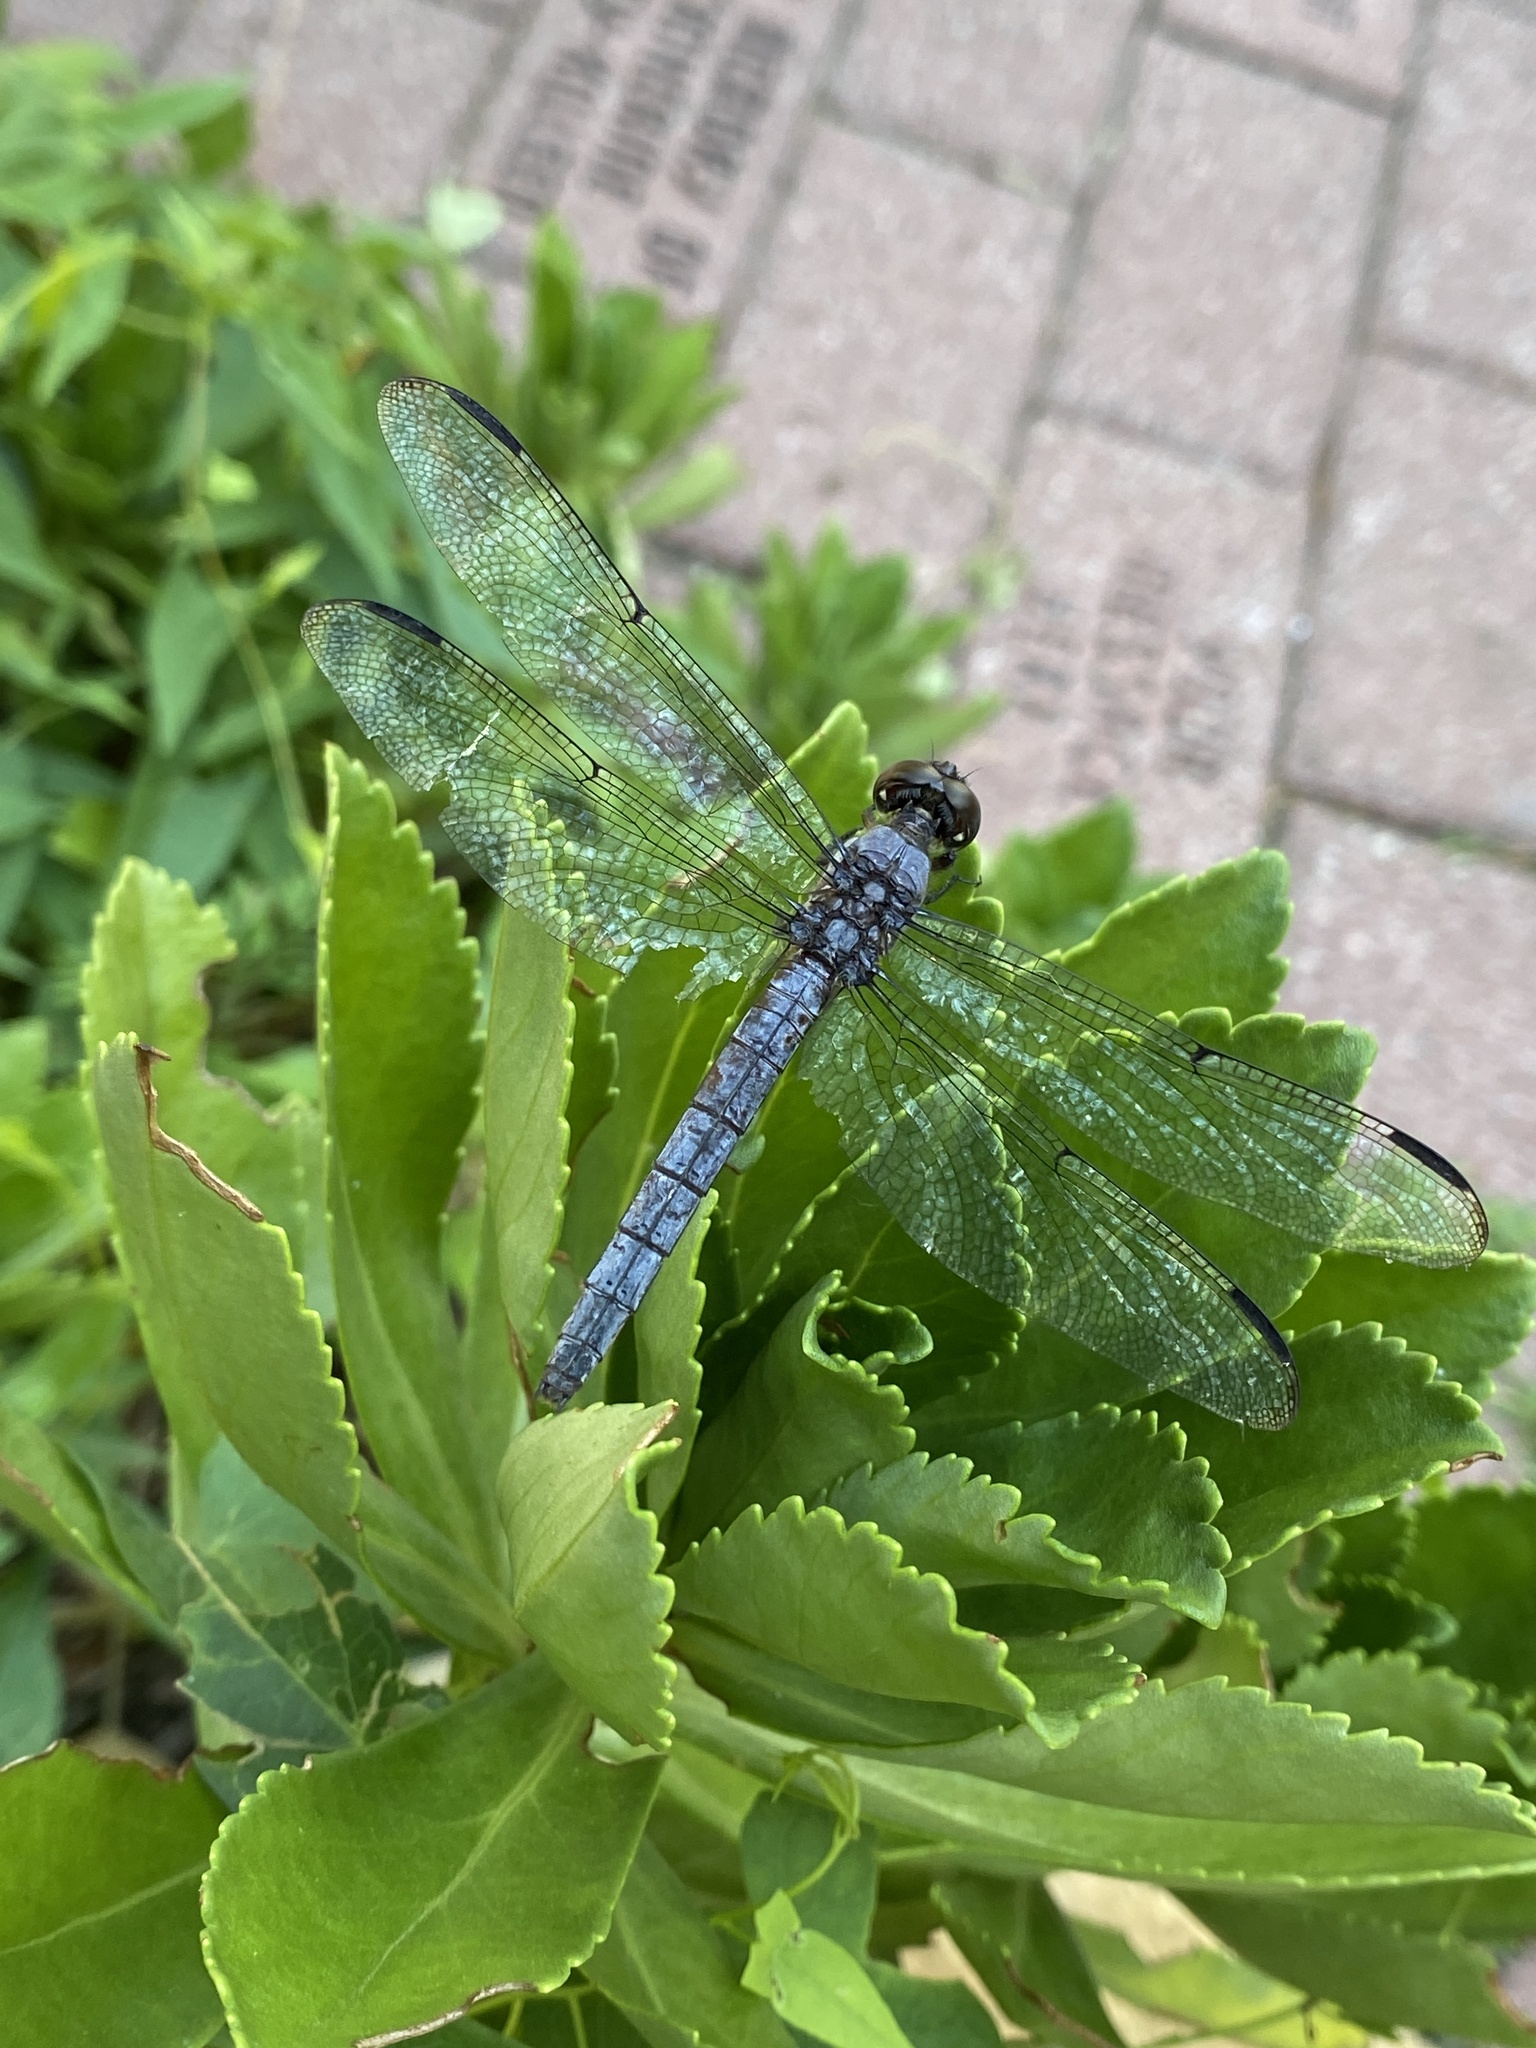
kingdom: Animalia
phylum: Arthropoda
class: Insecta
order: Odonata
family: Libellulidae
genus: Libellula
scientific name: Libellula incesta
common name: Slaty skimmer
